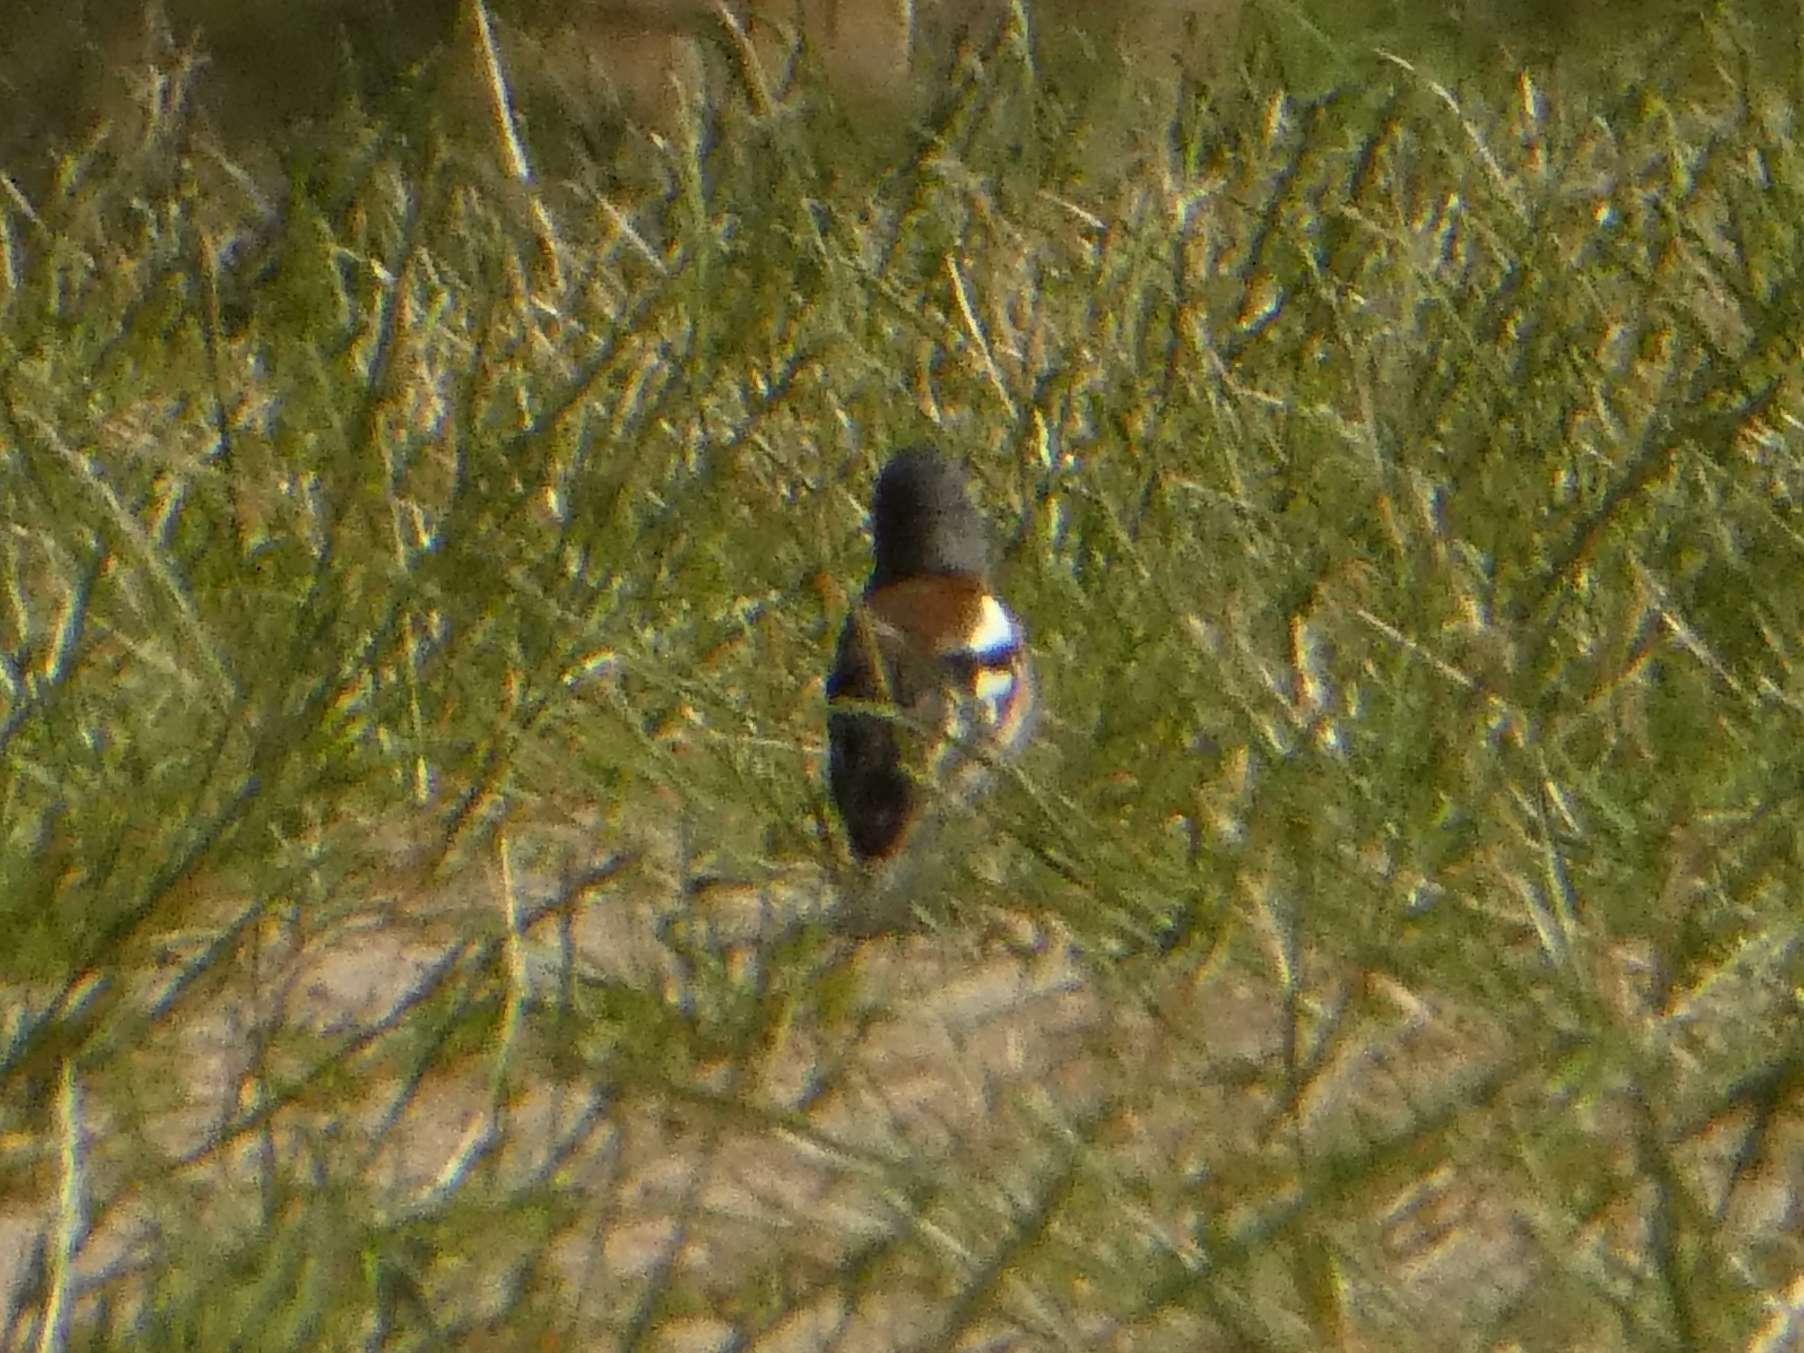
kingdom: Animalia
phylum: Chordata
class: Aves
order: Passeriformes
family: Fringillidae
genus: Fringilla
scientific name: Fringilla coelebs
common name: Common chaffinch
